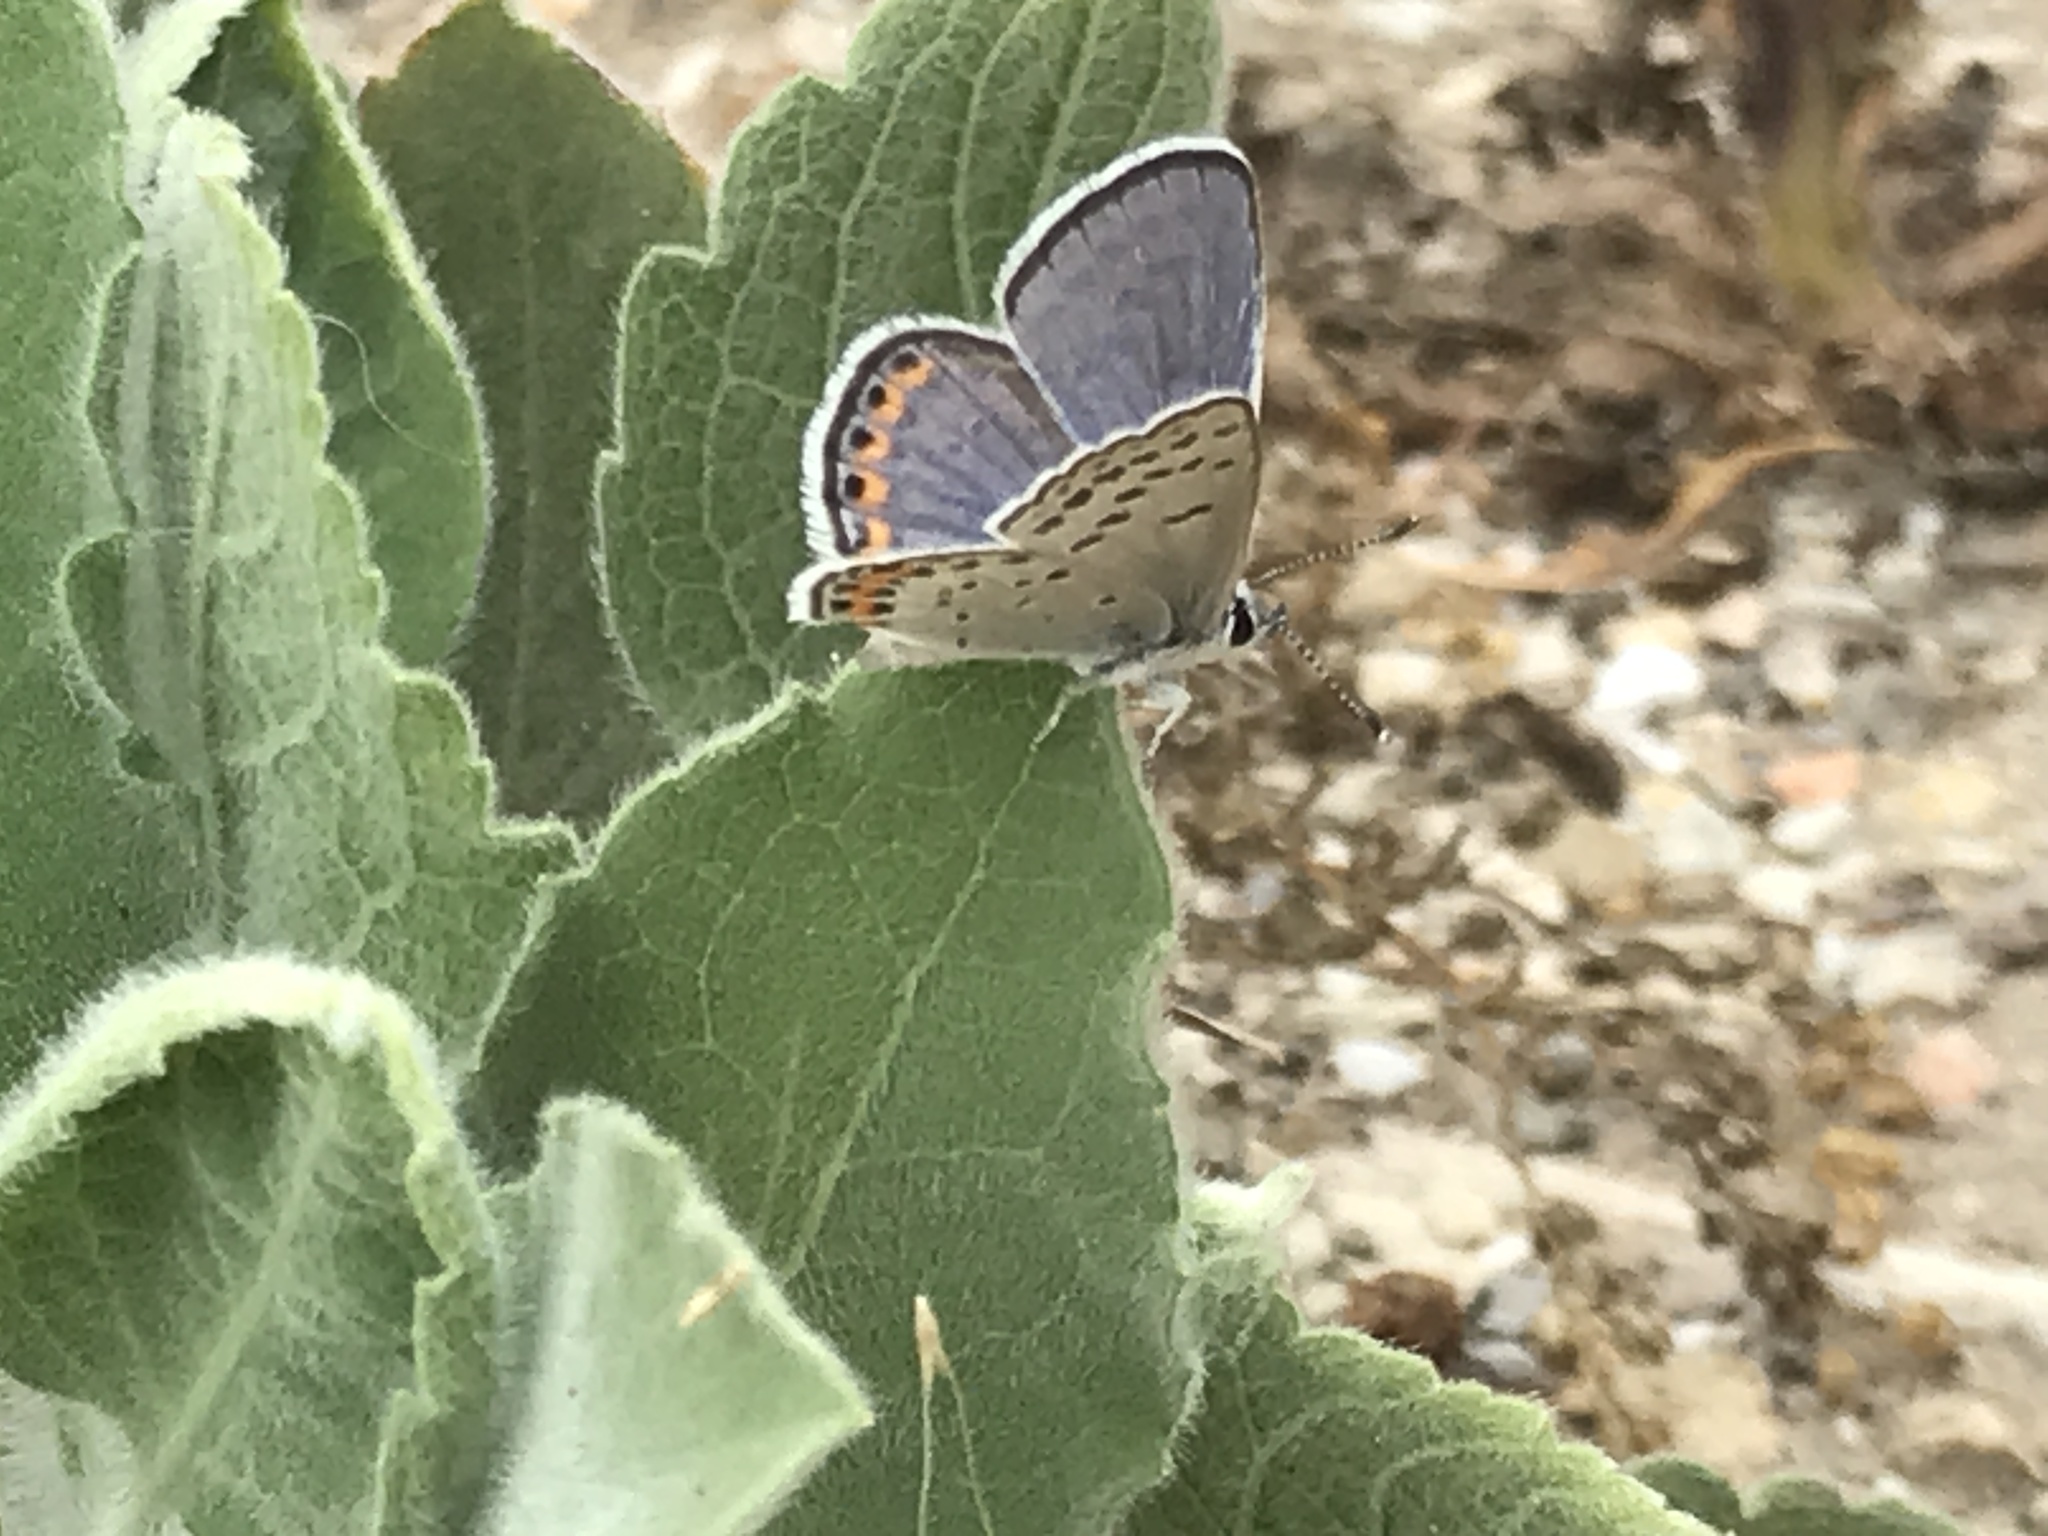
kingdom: Animalia
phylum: Arthropoda
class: Insecta
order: Lepidoptera
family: Lycaenidae
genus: Icaricia
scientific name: Icaricia acmon
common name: Acmon blue
